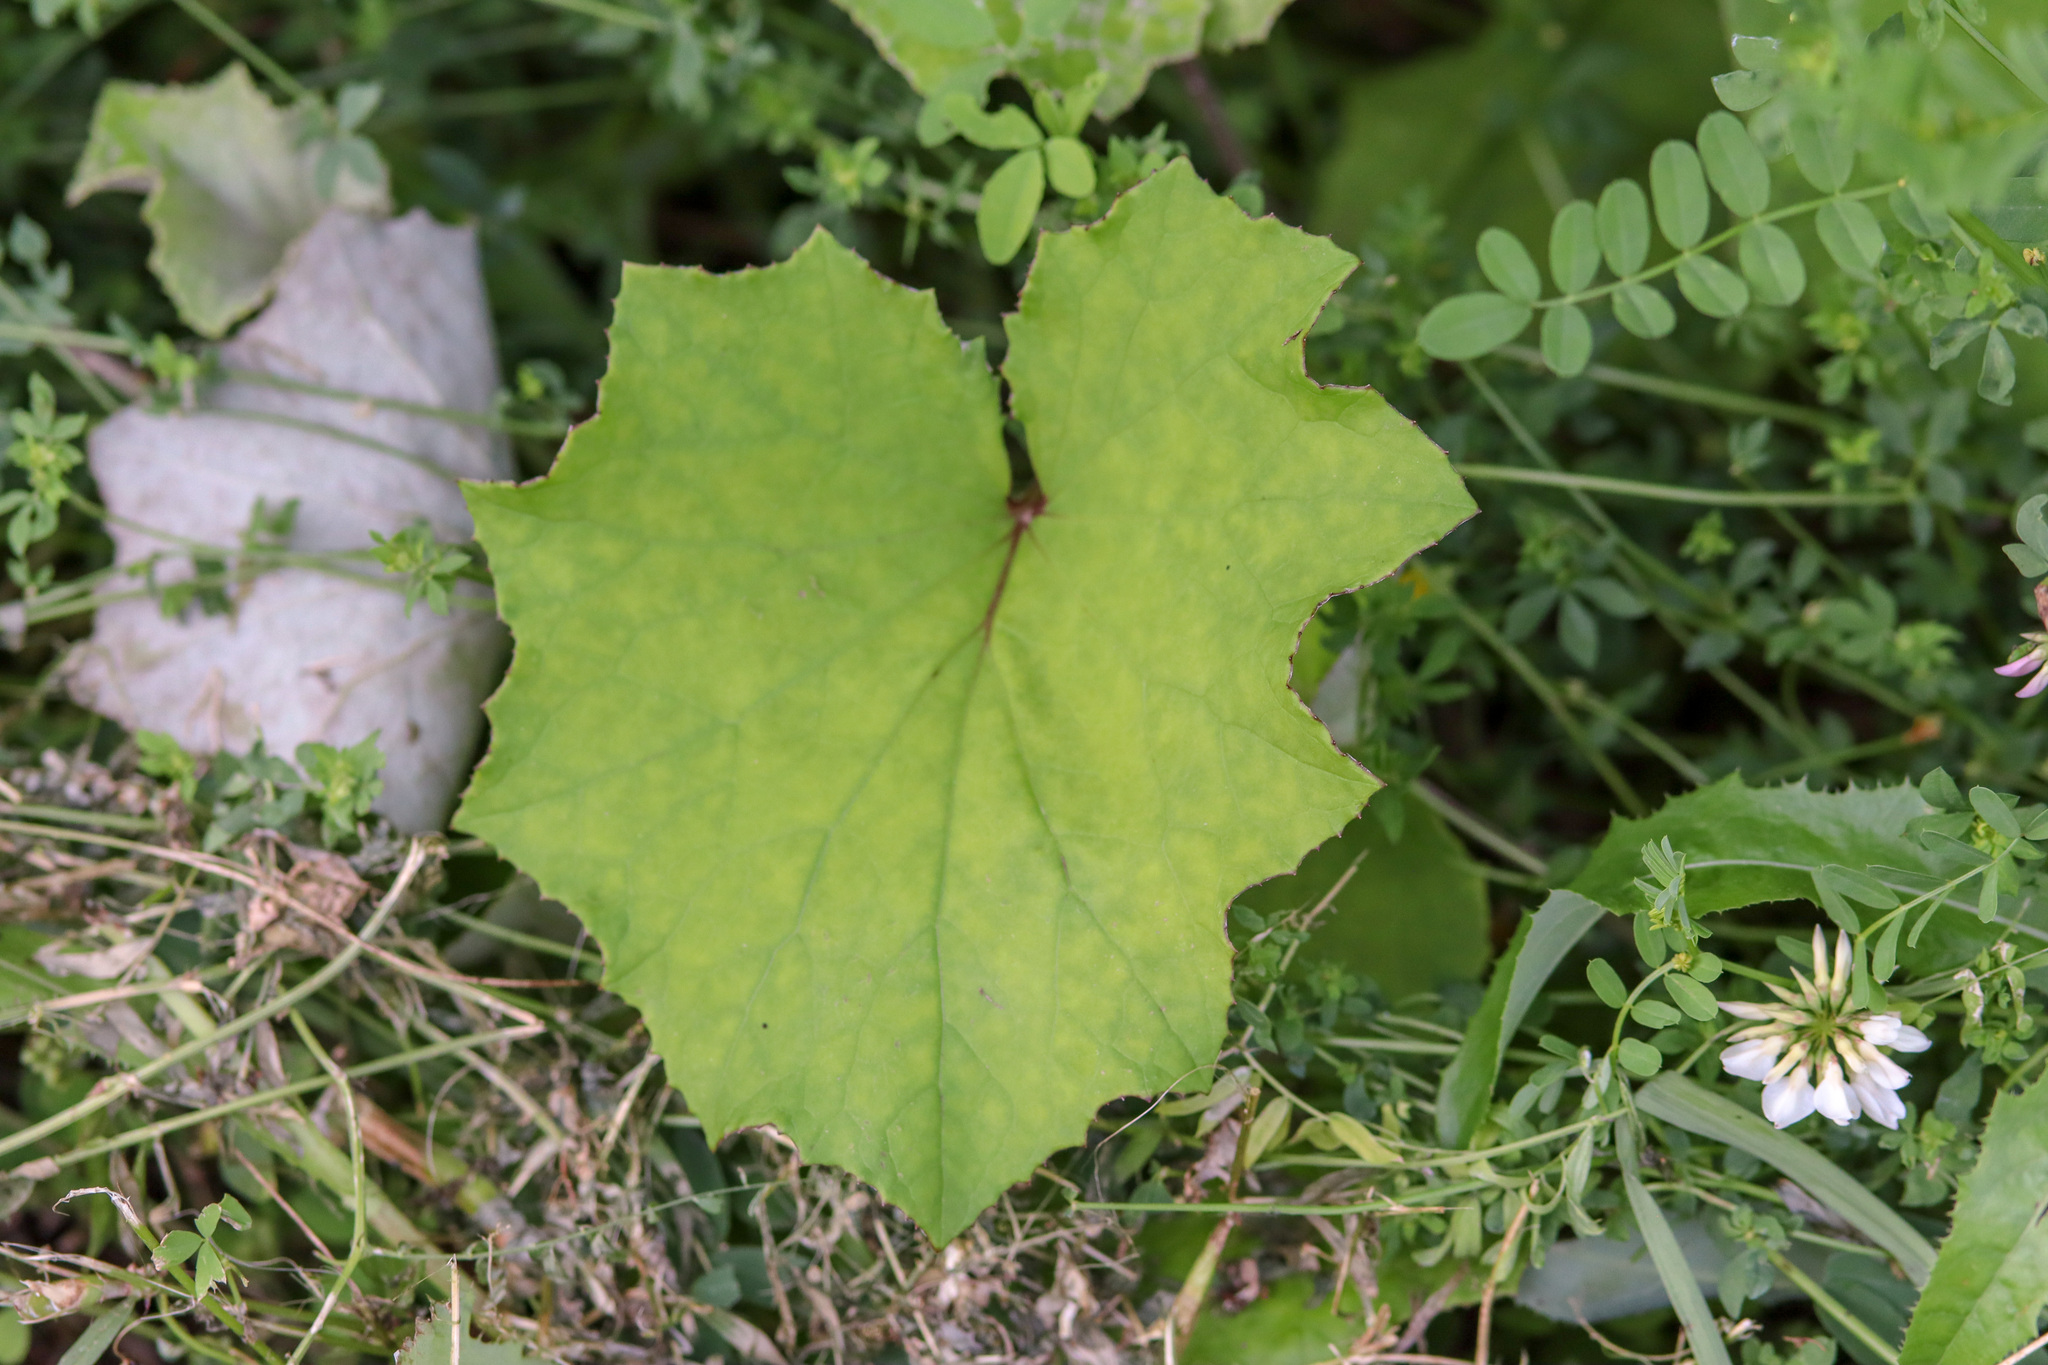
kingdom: Plantae
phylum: Tracheophyta
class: Magnoliopsida
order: Asterales
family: Asteraceae
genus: Tussilago
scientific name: Tussilago farfara
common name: Coltsfoot
